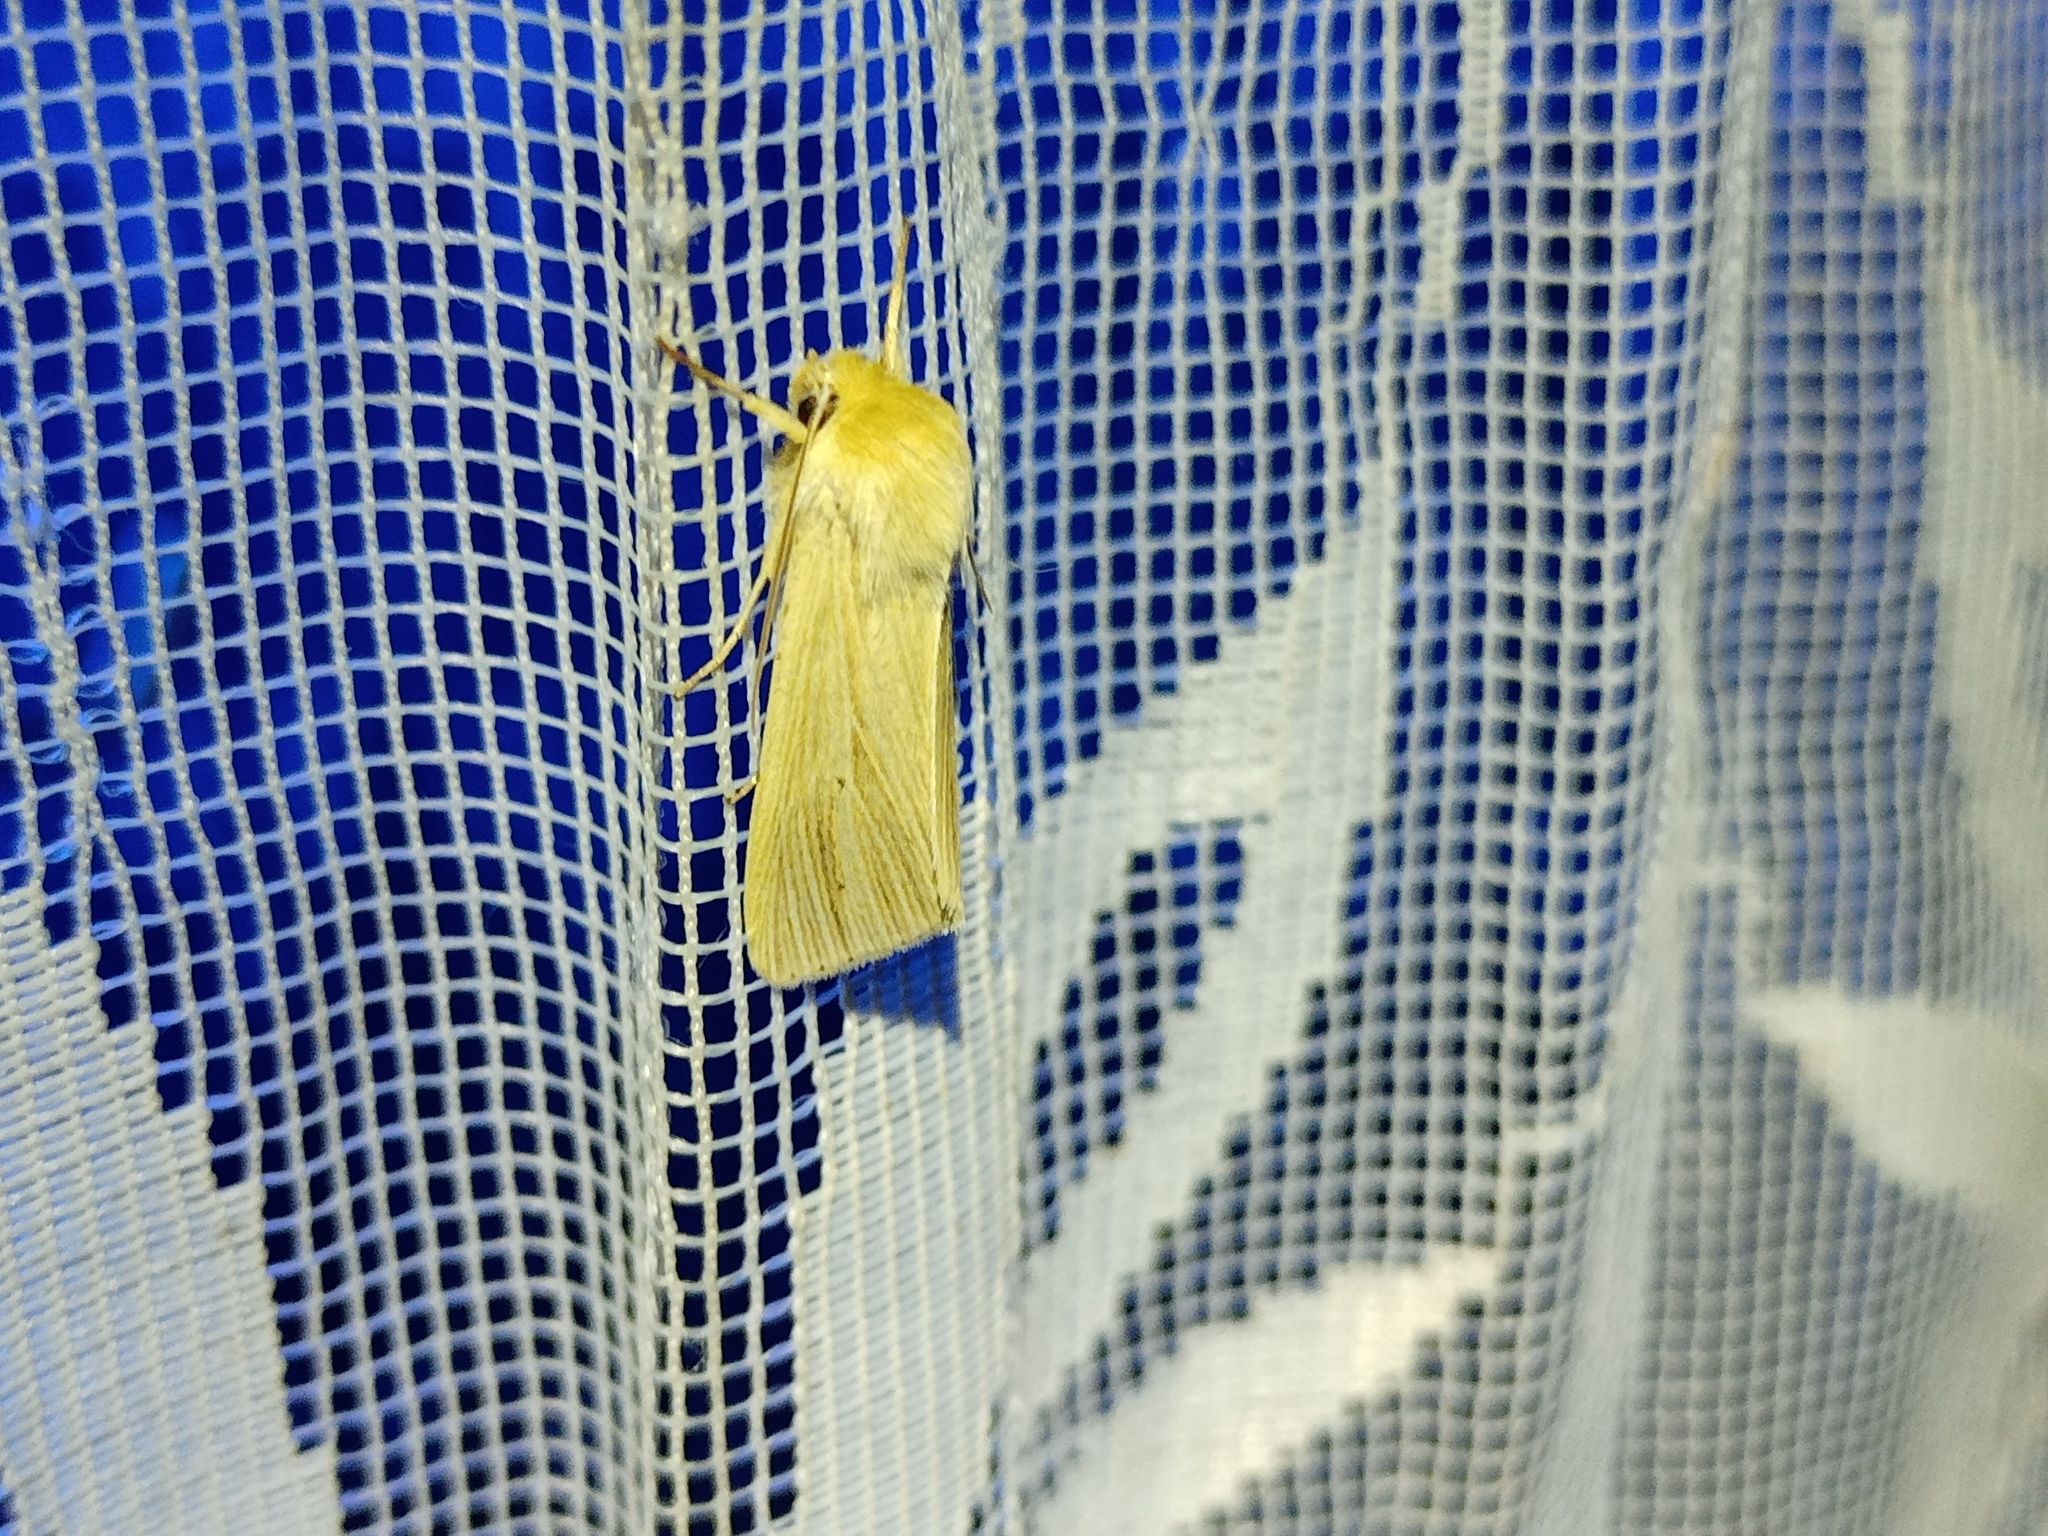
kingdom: Animalia
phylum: Arthropoda
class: Insecta
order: Lepidoptera
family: Noctuidae
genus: Mythimna
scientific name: Mythimna pallens
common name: Common wainscot
